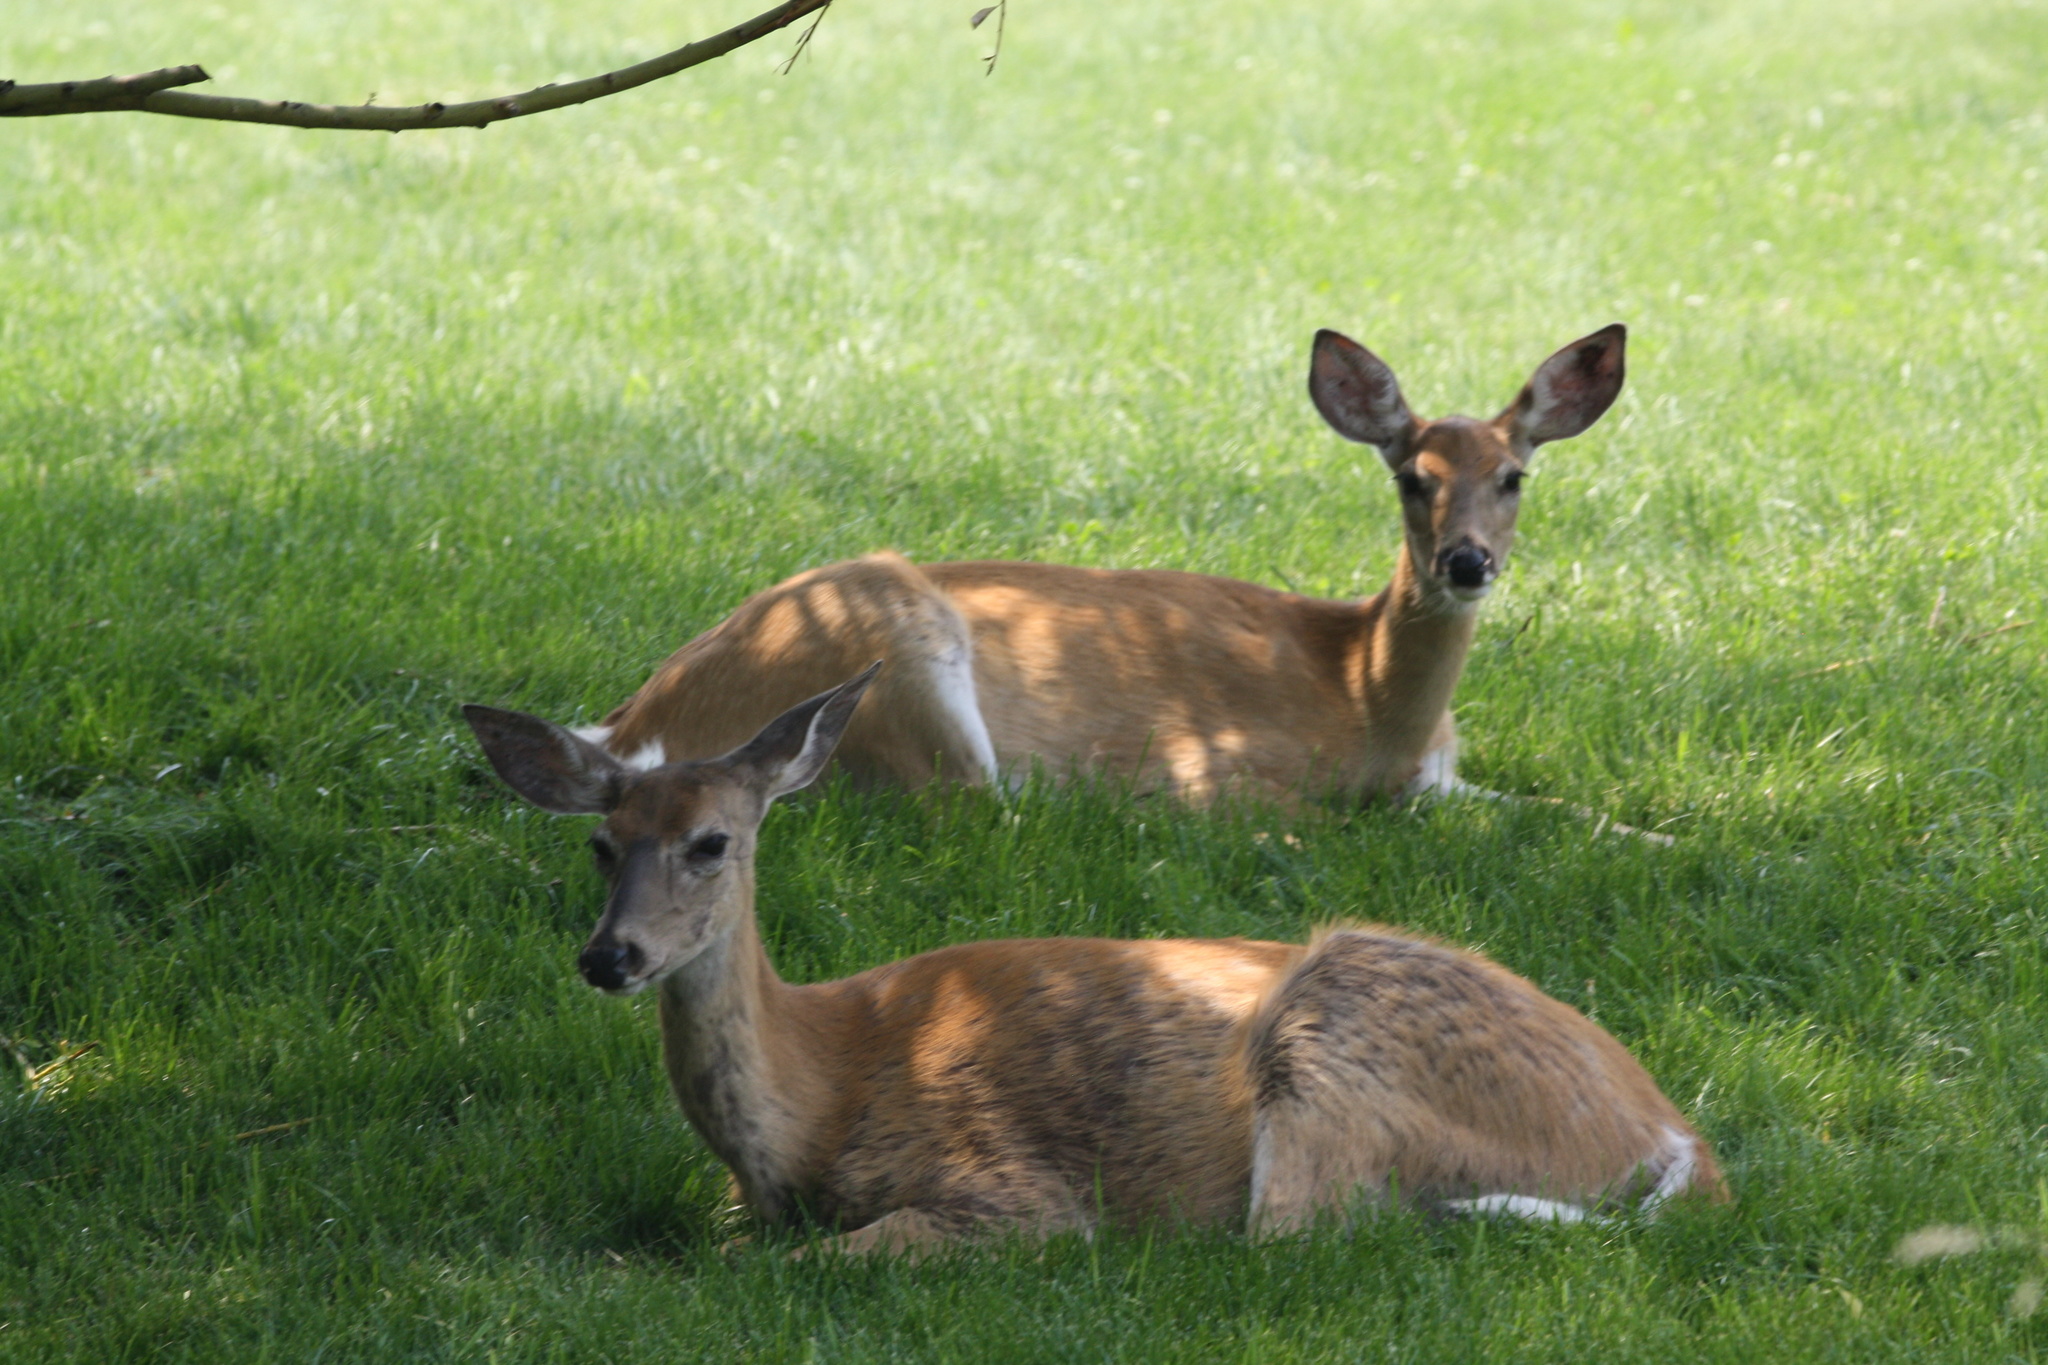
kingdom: Animalia
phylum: Chordata
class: Mammalia
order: Artiodactyla
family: Cervidae
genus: Odocoileus
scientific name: Odocoileus virginianus
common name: White-tailed deer
